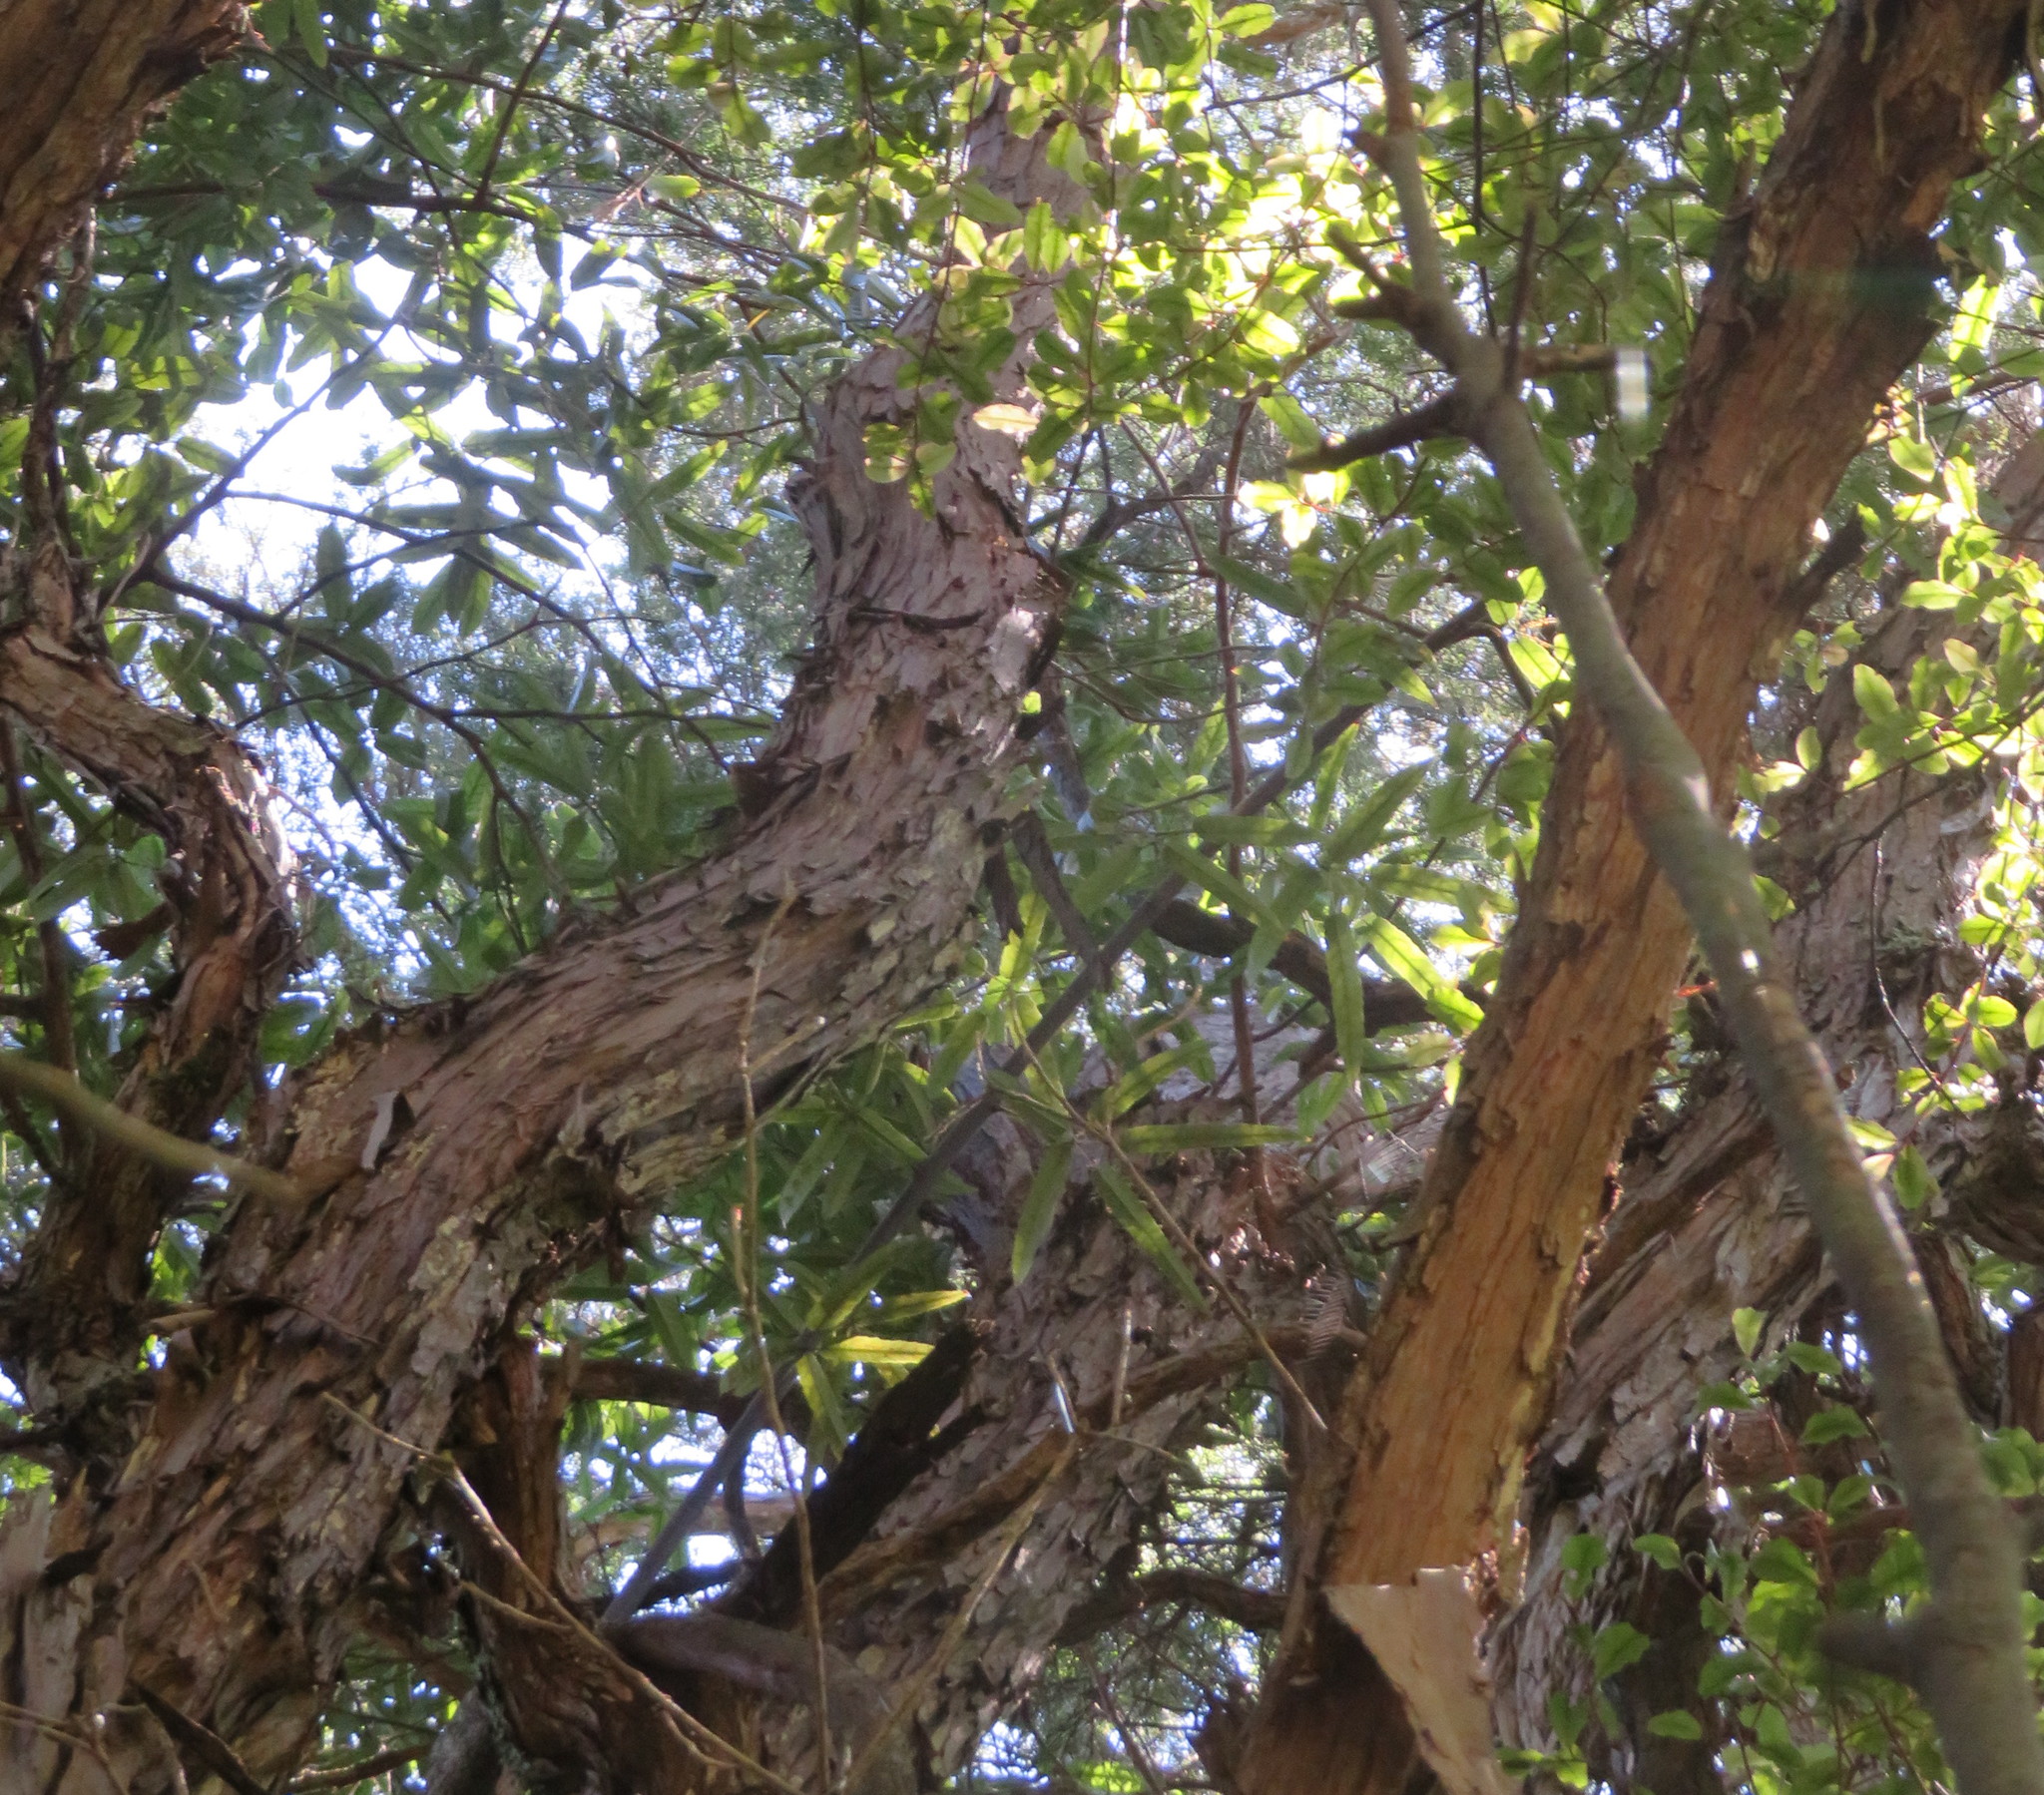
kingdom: Plantae
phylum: Tracheophyta
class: Magnoliopsida
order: Myrtales
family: Myrtaceae
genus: Kunzea
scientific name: Kunzea robusta
